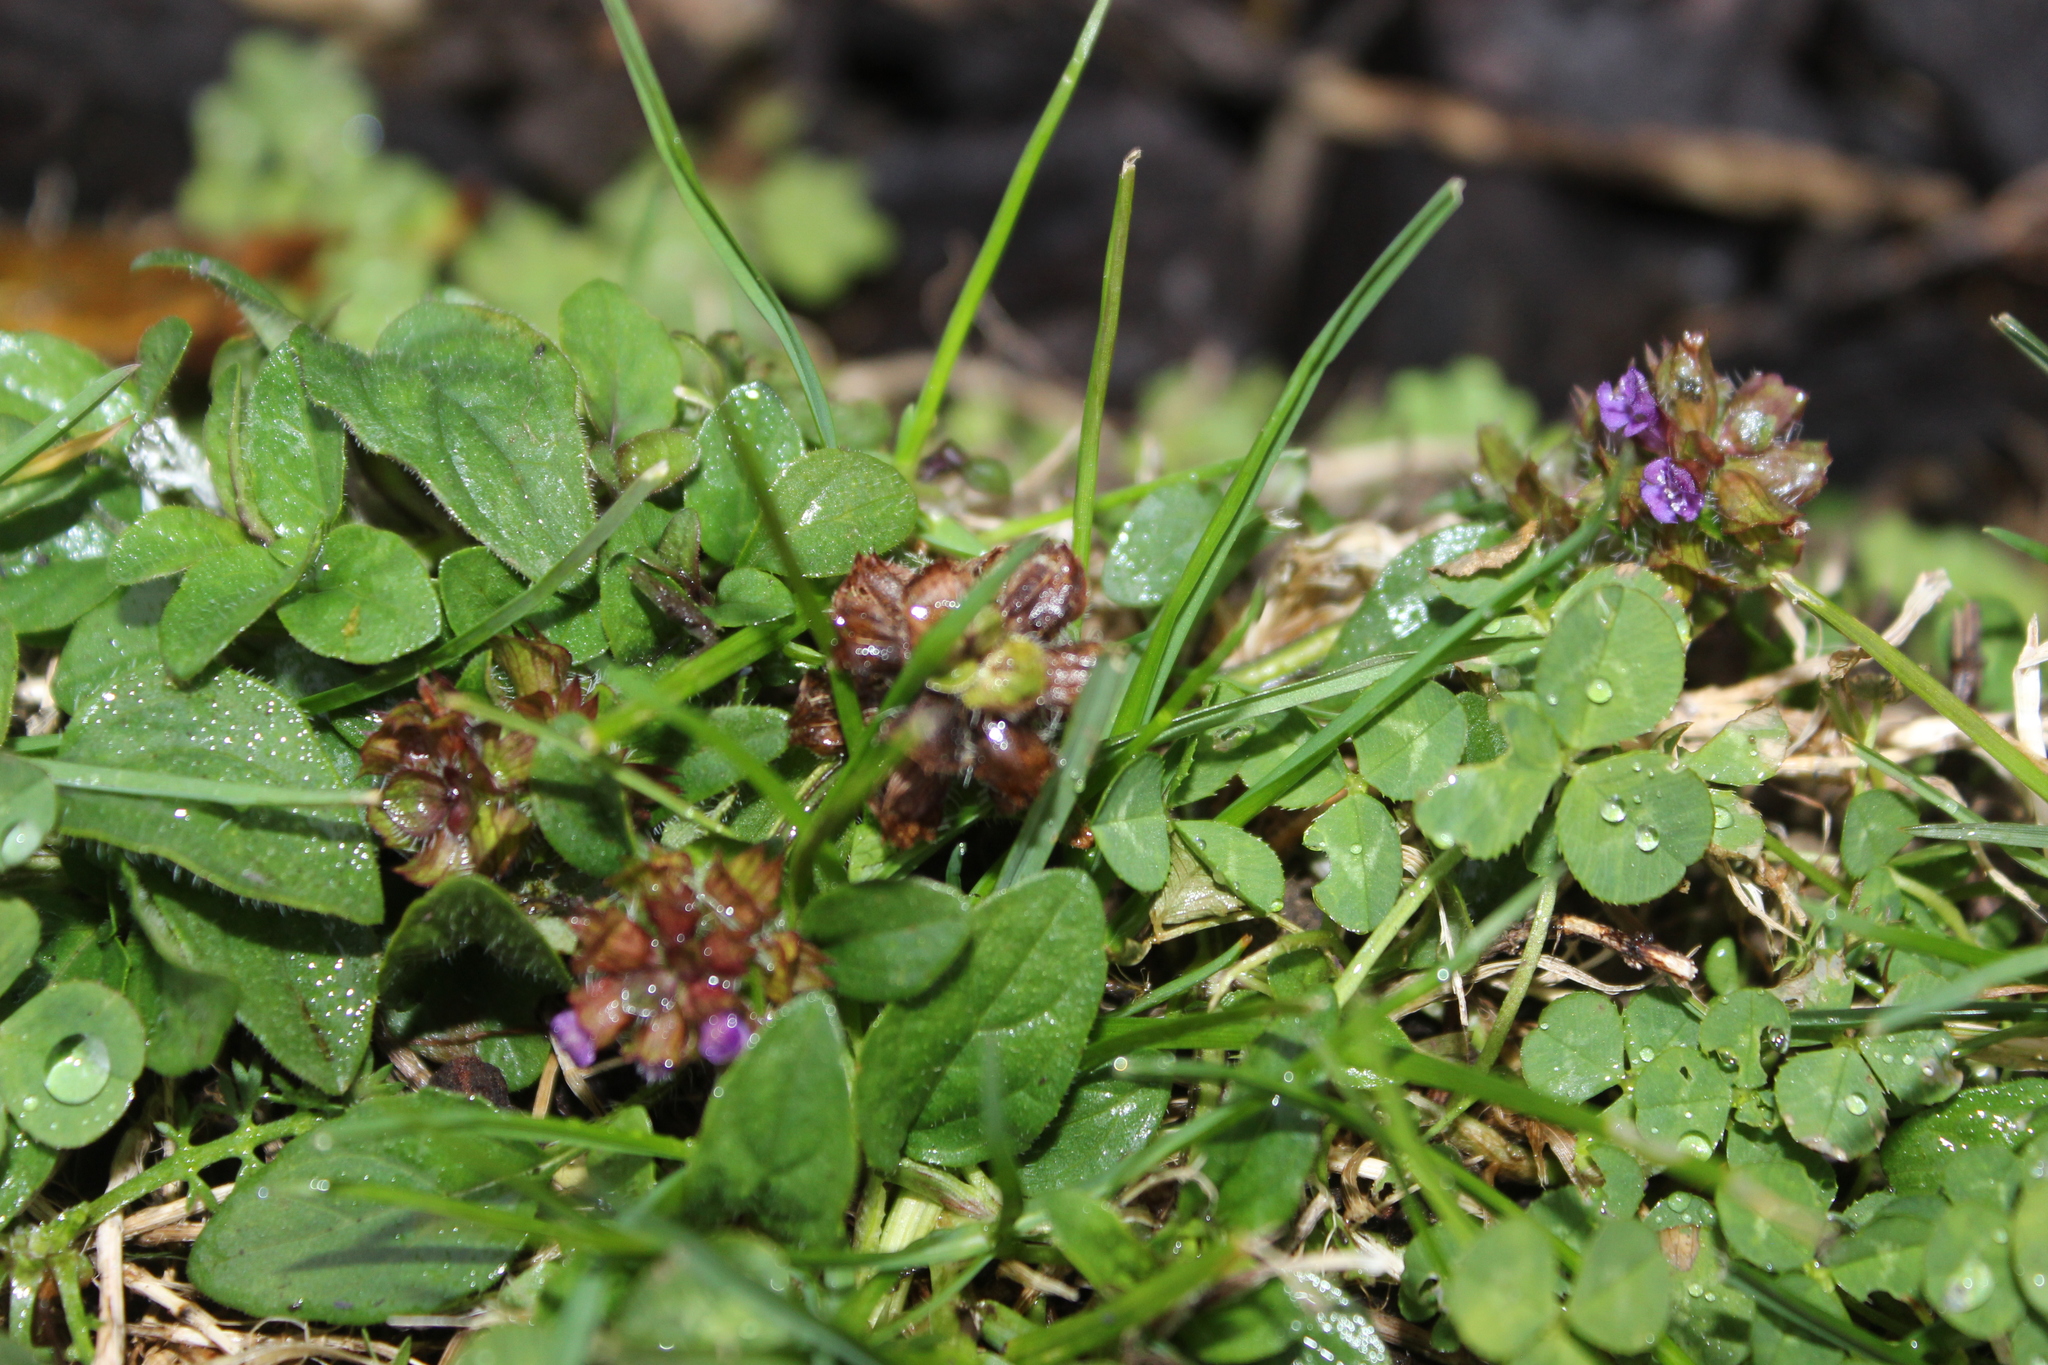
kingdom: Plantae
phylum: Tracheophyta
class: Magnoliopsida
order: Lamiales
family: Lamiaceae
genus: Prunella
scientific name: Prunella vulgaris
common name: Heal-all
